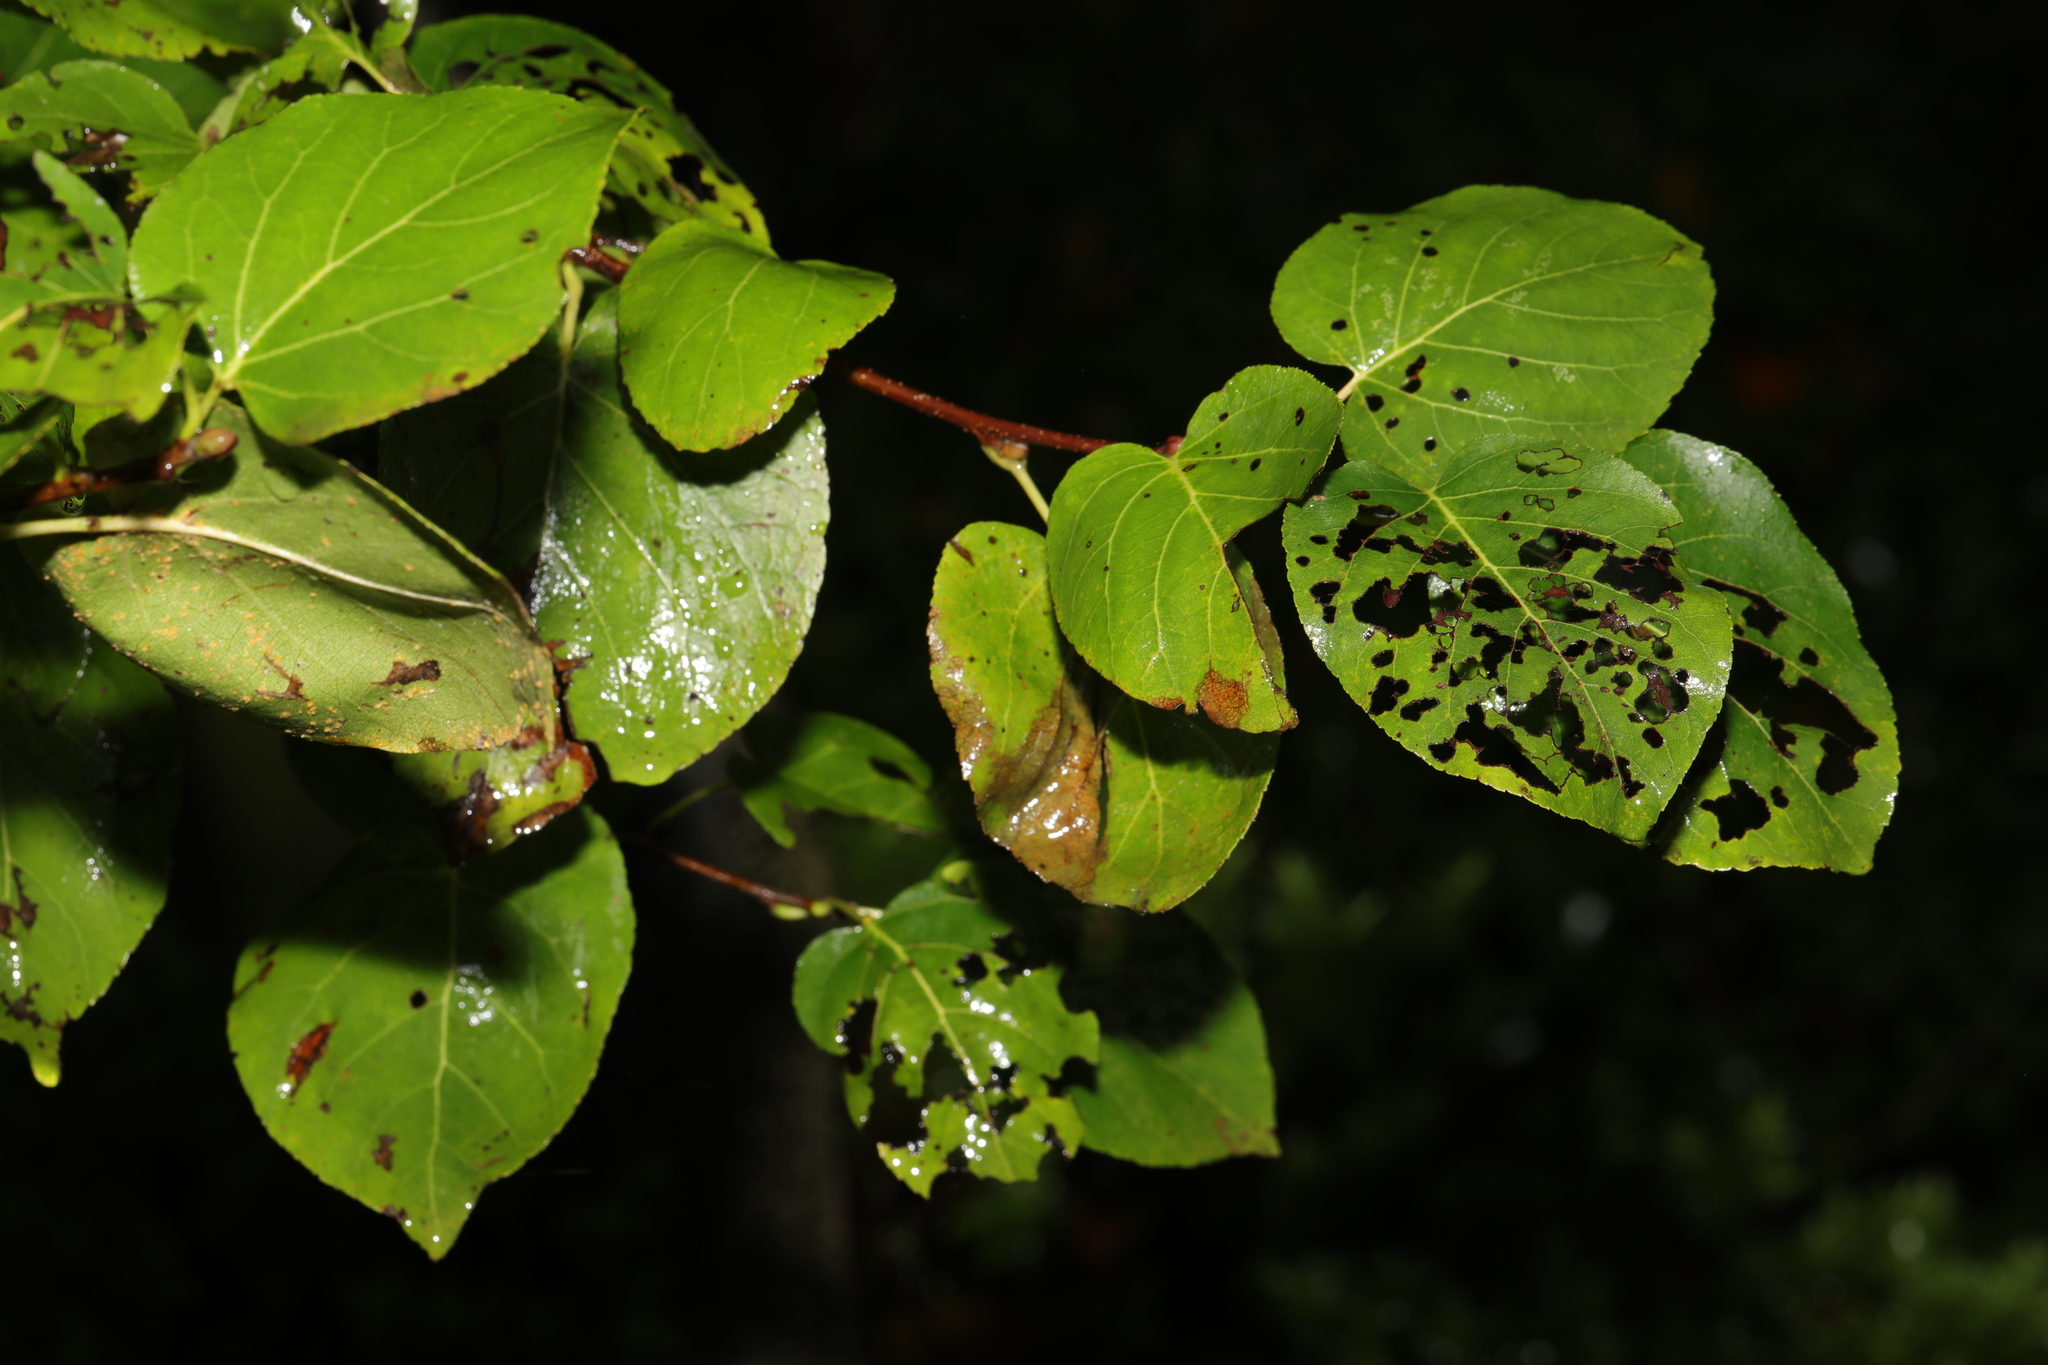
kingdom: Plantae
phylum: Tracheophyta
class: Magnoliopsida
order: Fagales
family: Betulaceae
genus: Alnus
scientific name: Alnus cordata
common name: Italian alder
